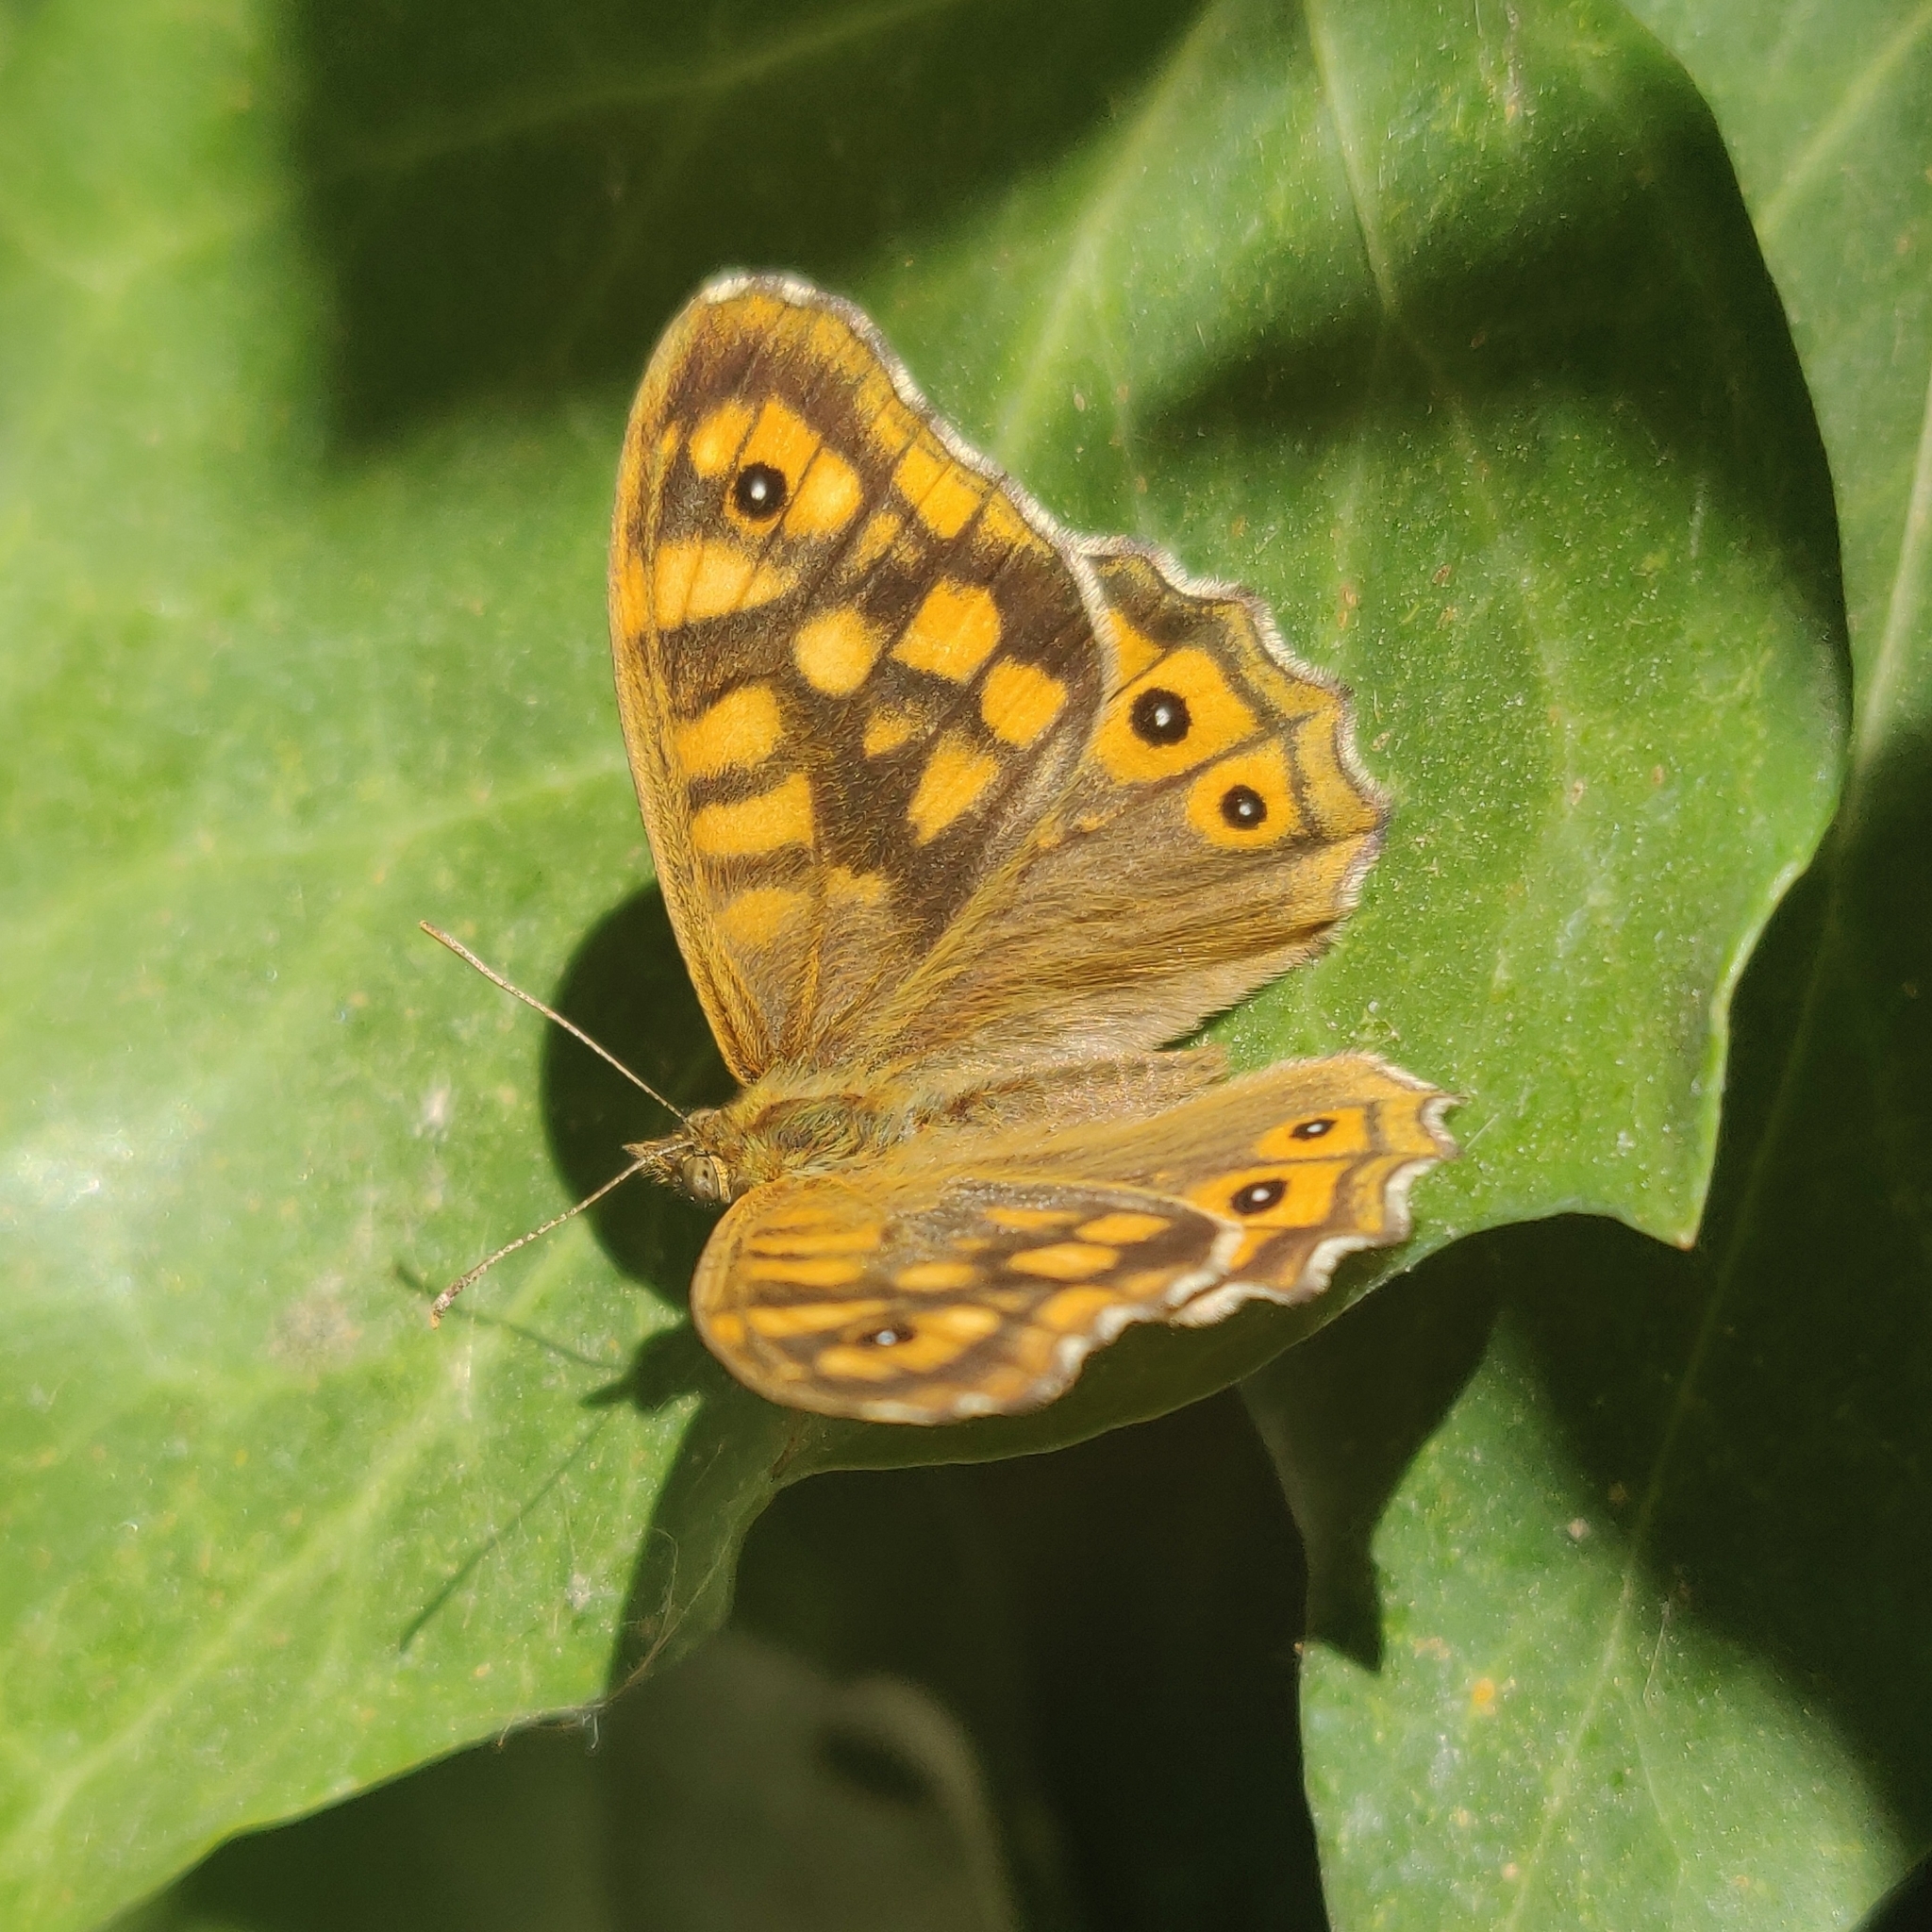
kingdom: Animalia
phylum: Arthropoda
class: Insecta
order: Lepidoptera
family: Nymphalidae
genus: Pararge
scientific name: Pararge aegeria
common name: Speckled wood
